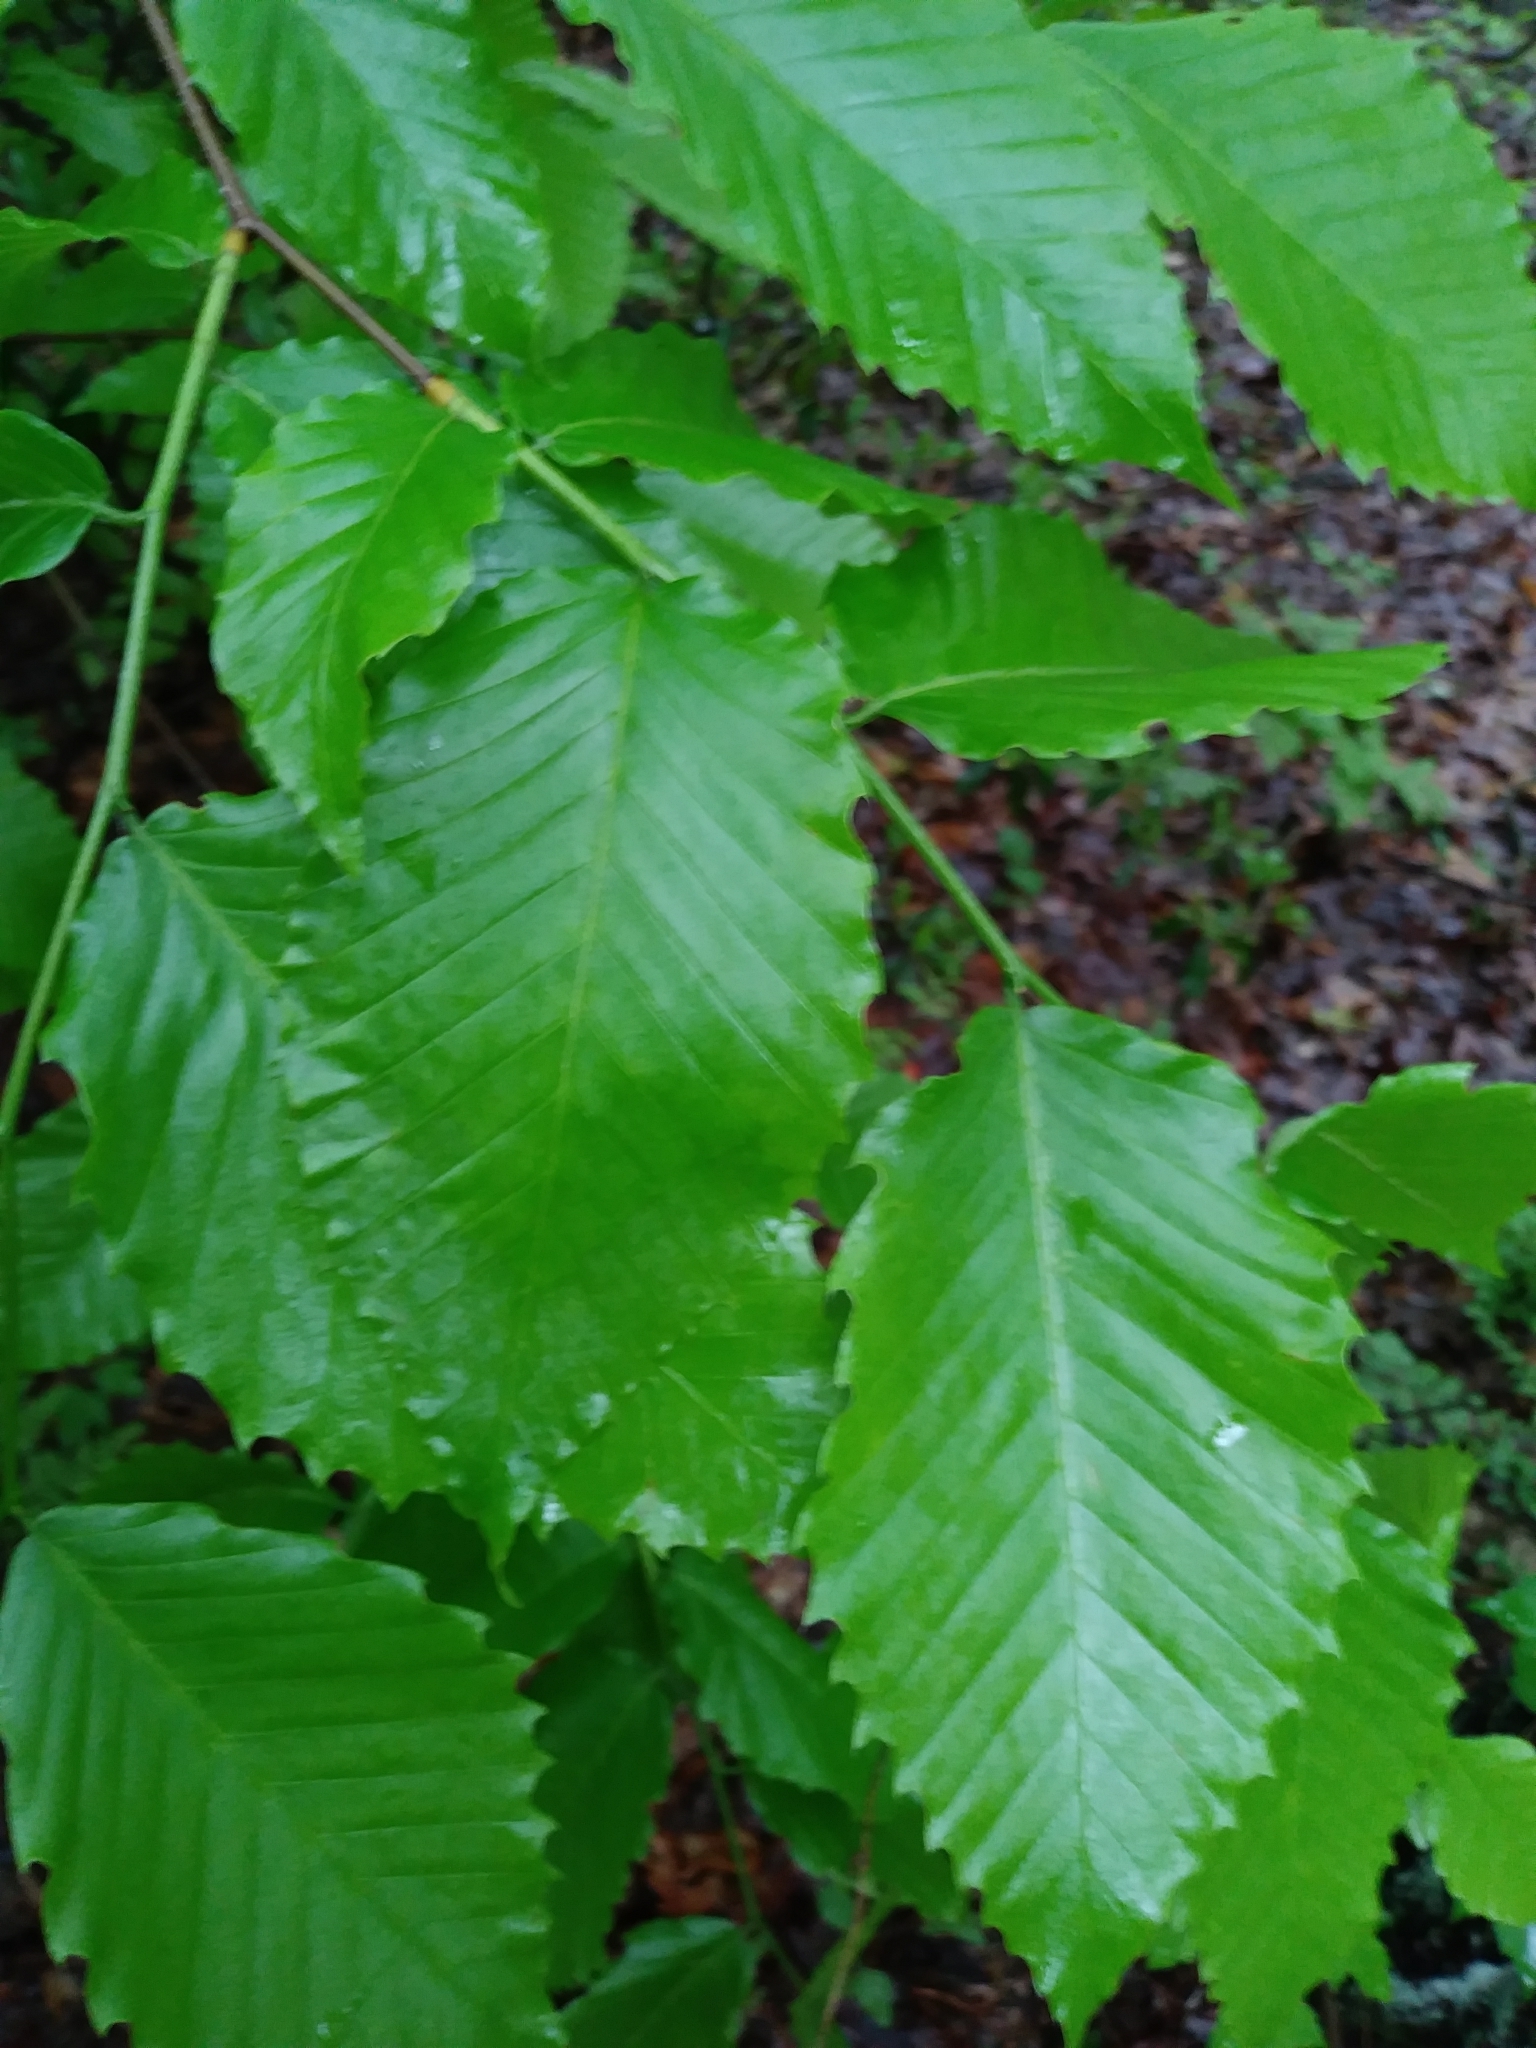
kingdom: Plantae
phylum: Tracheophyta
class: Magnoliopsida
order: Fagales
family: Fagaceae
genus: Fagus
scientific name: Fagus grandifolia
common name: American beech
